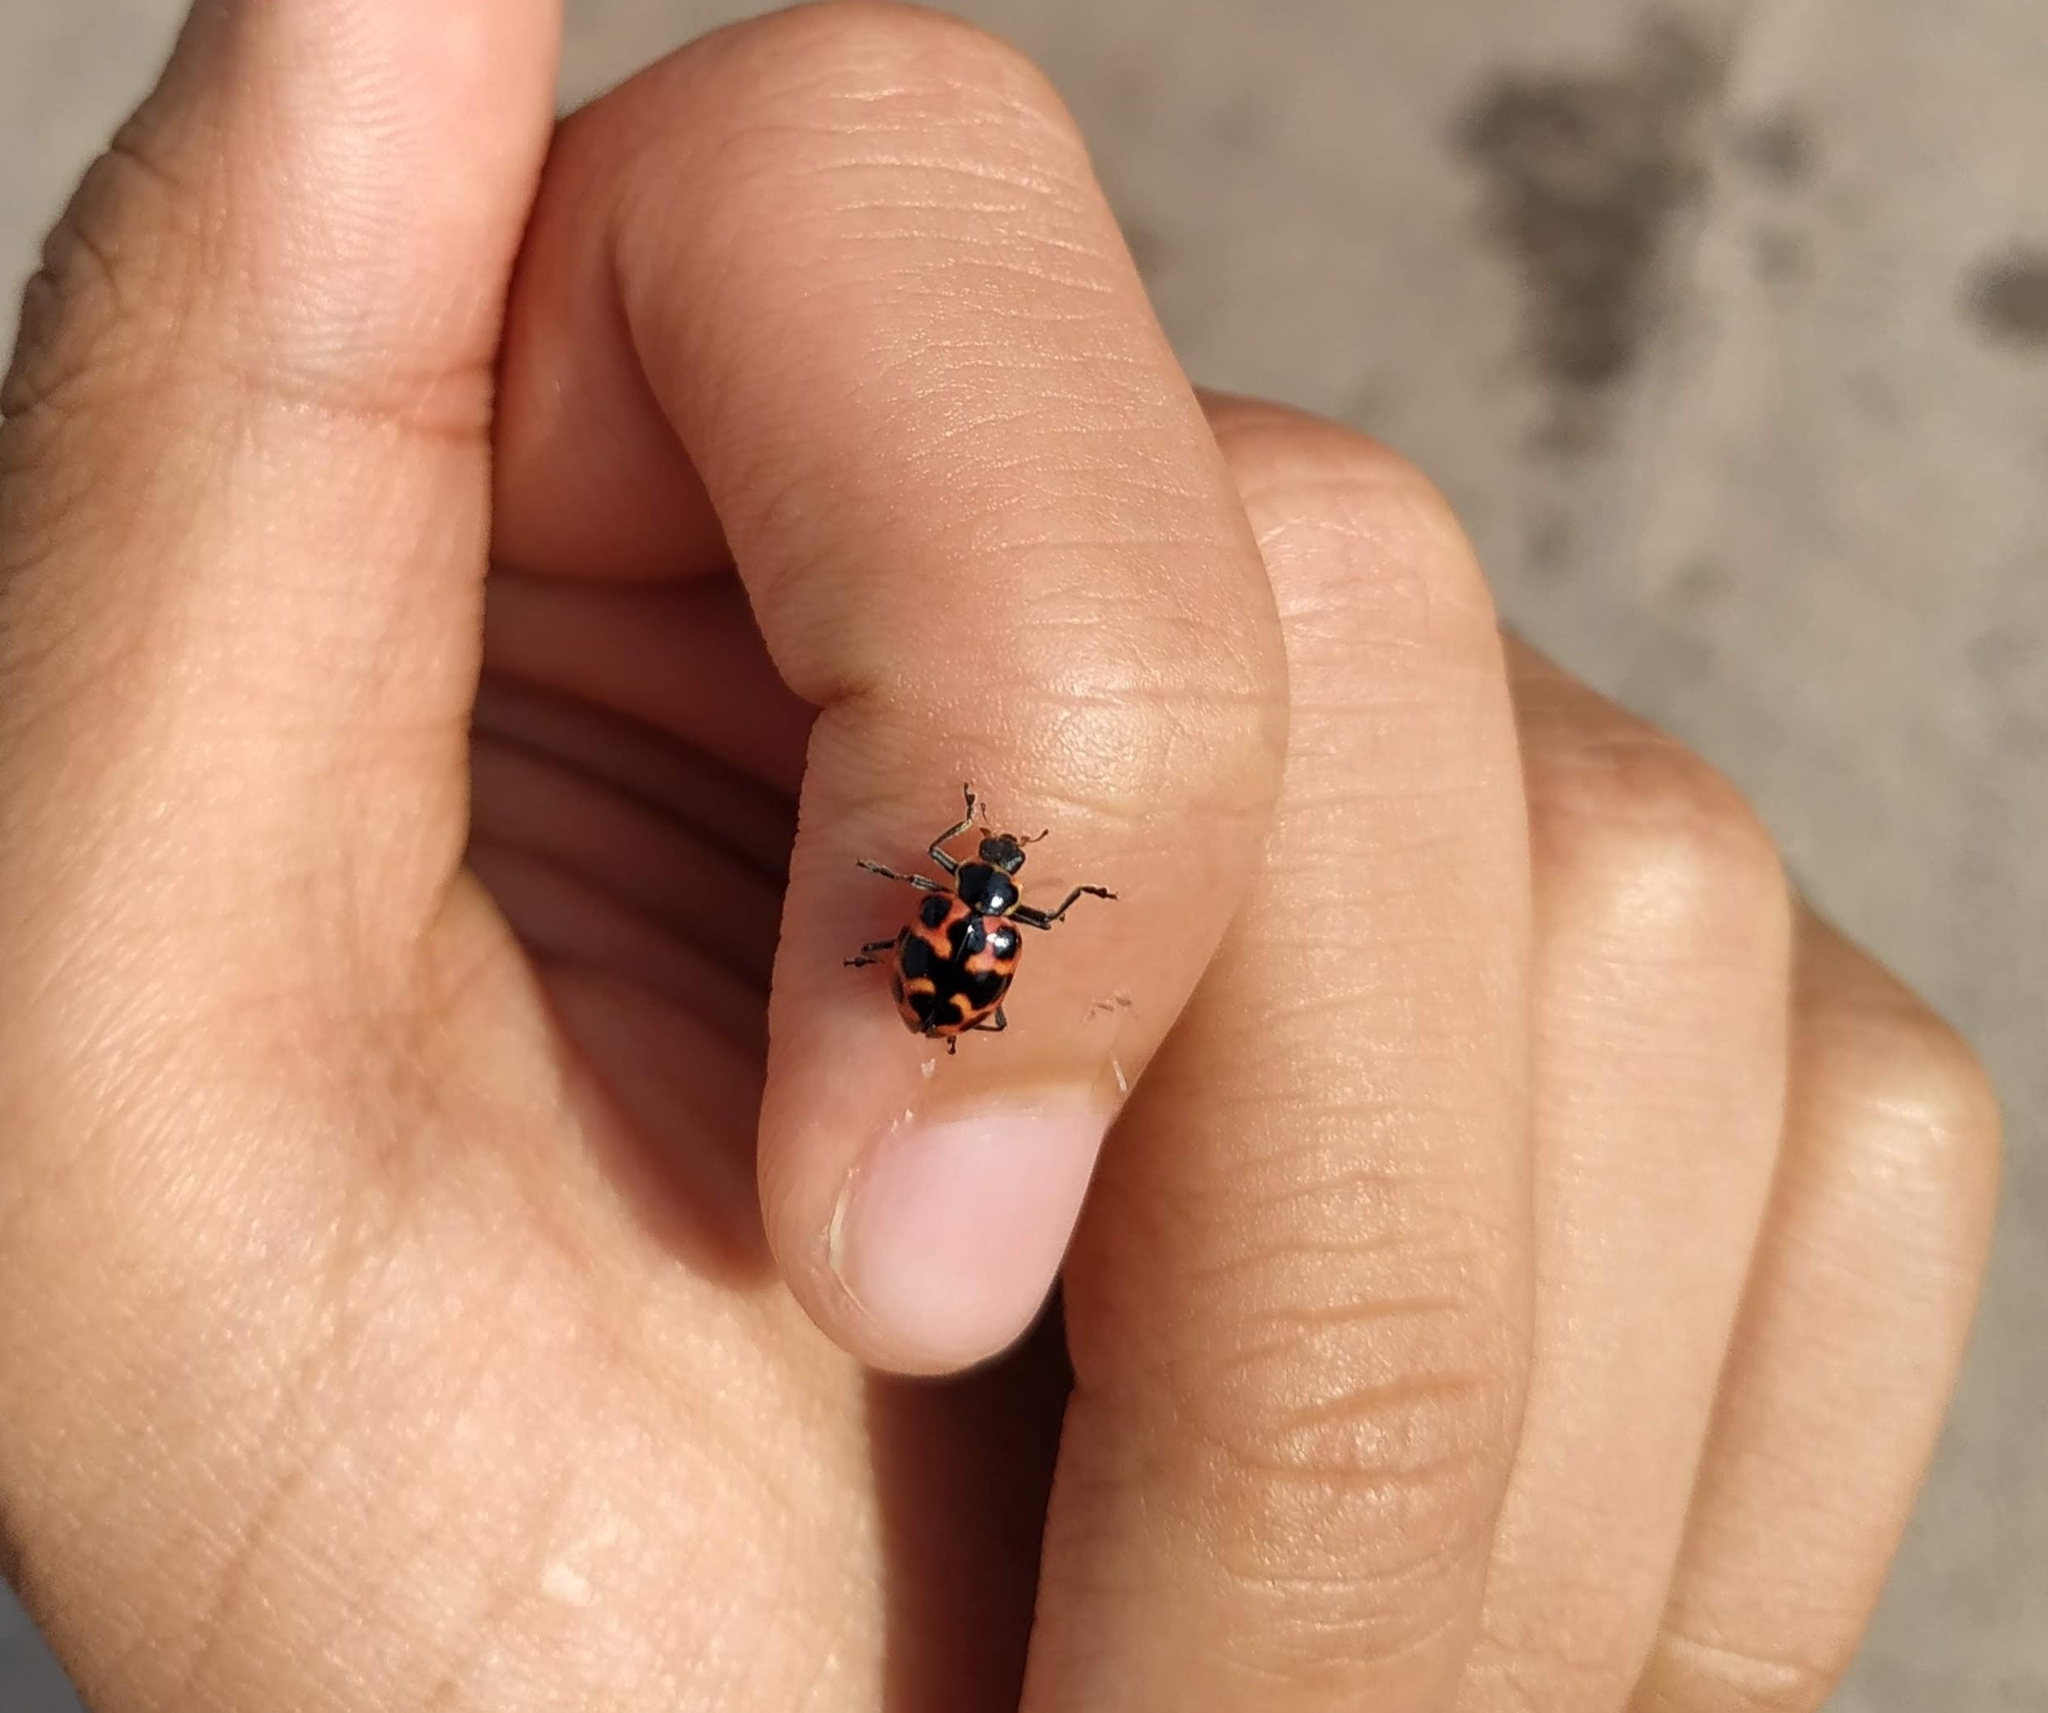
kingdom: Animalia
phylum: Arthropoda
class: Insecta
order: Coleoptera
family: Coccinellidae
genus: Coleomegilla
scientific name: Coleomegilla
